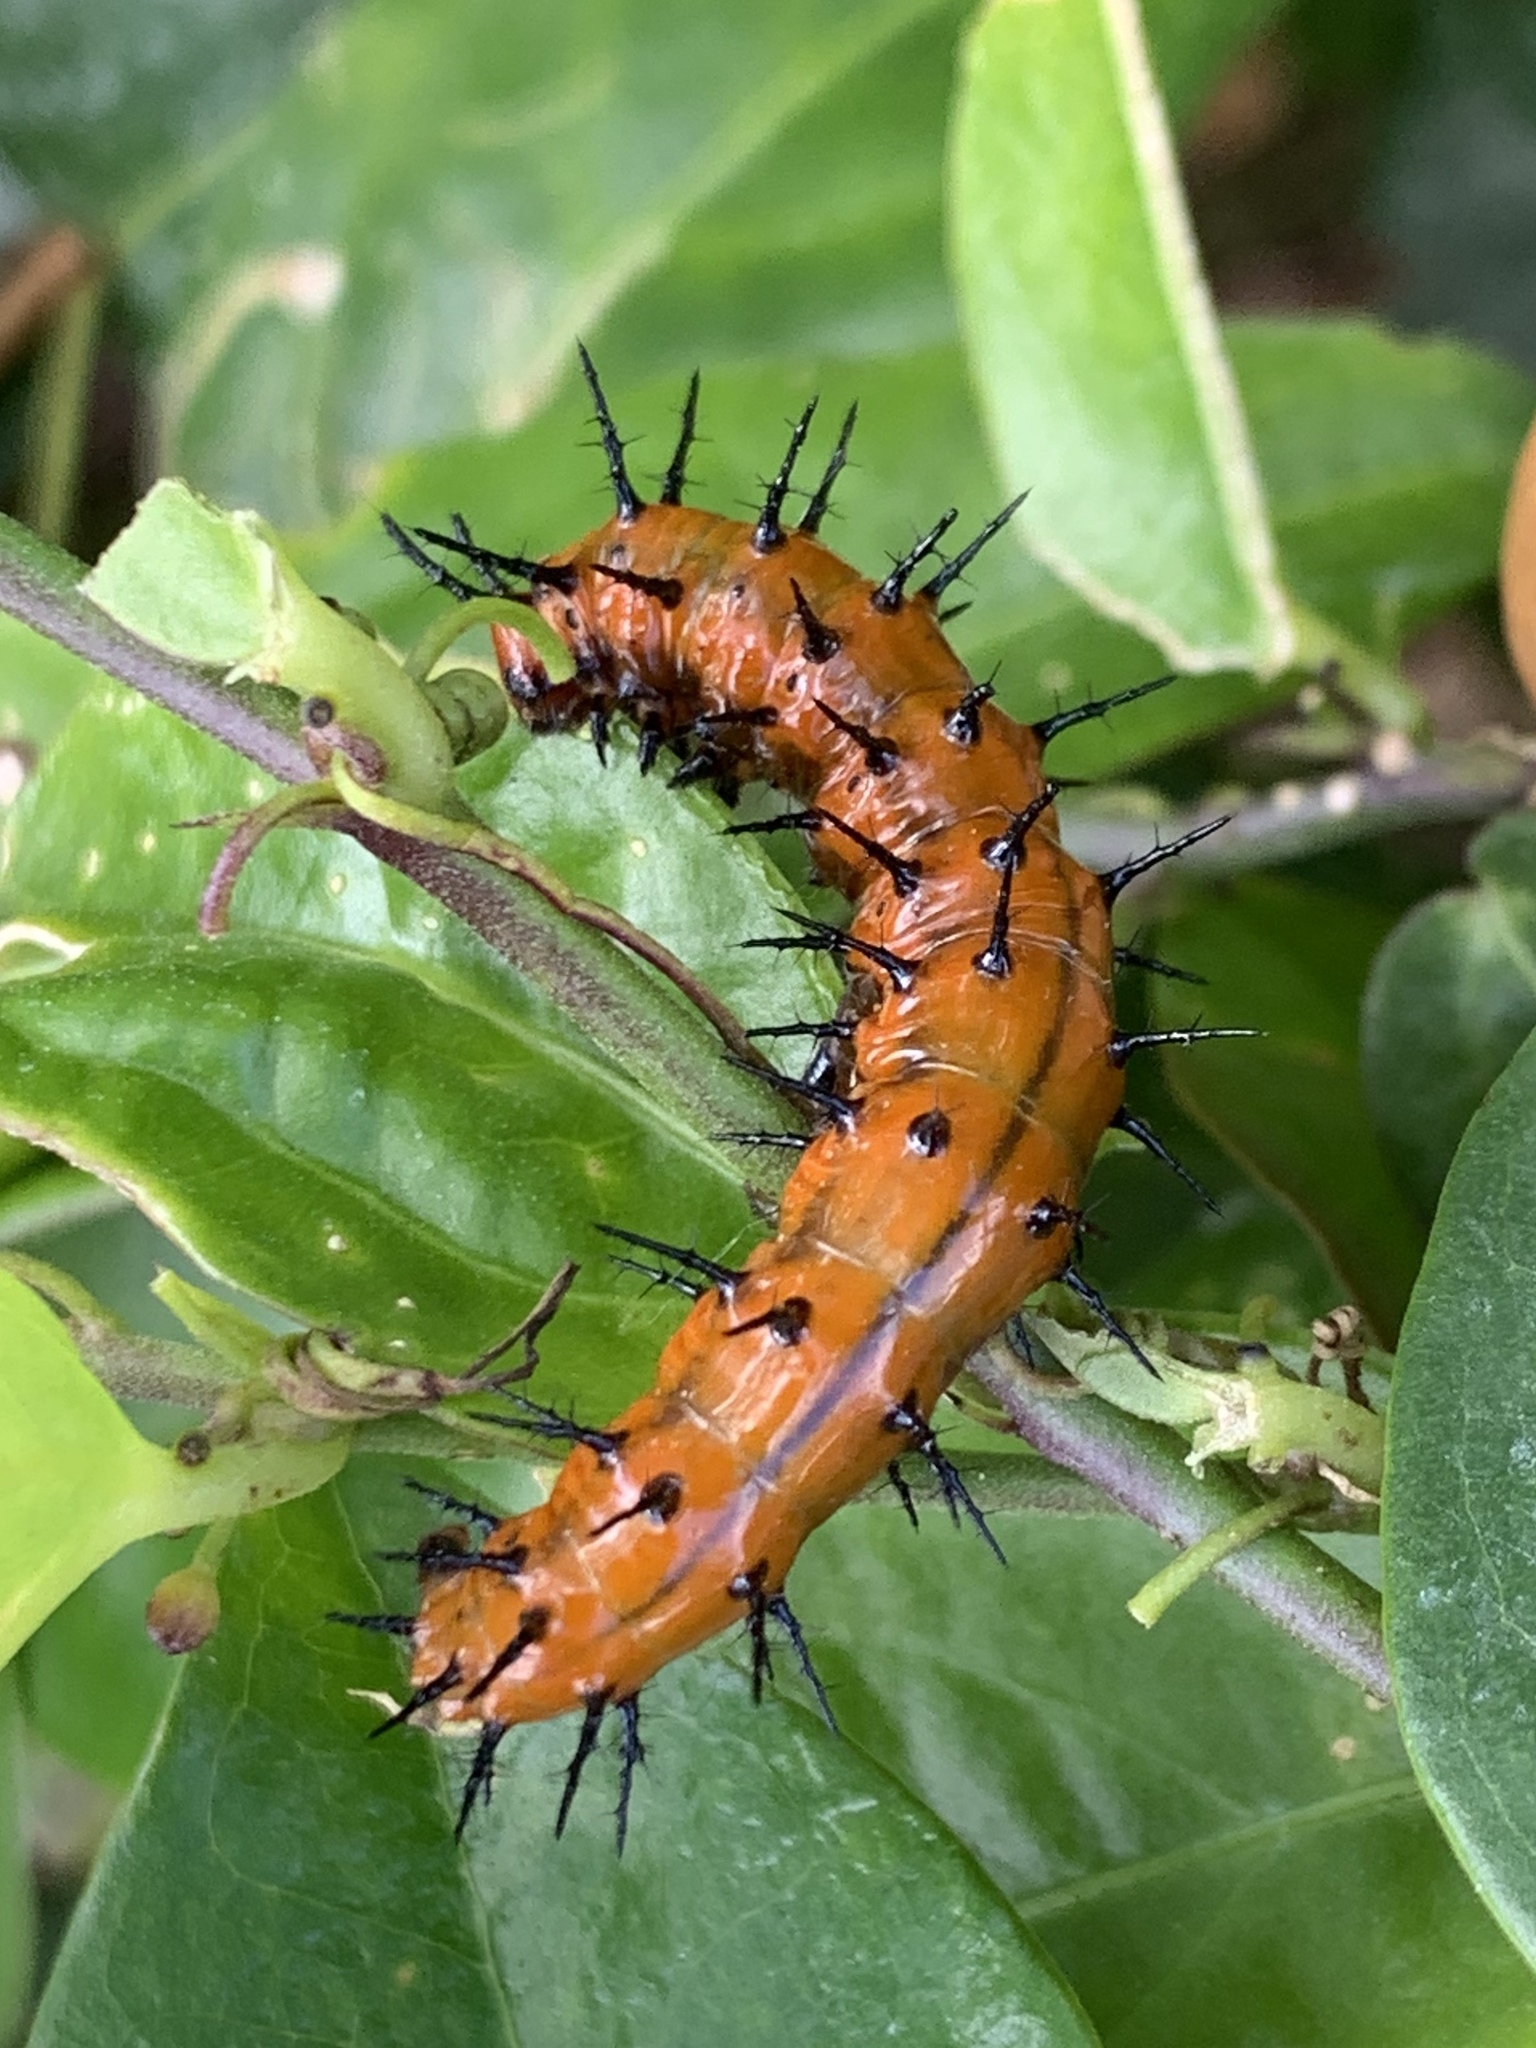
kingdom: Animalia
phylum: Arthropoda
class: Insecta
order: Lepidoptera
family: Nymphalidae
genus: Dione
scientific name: Dione vanillae
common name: Gulf fritillary
